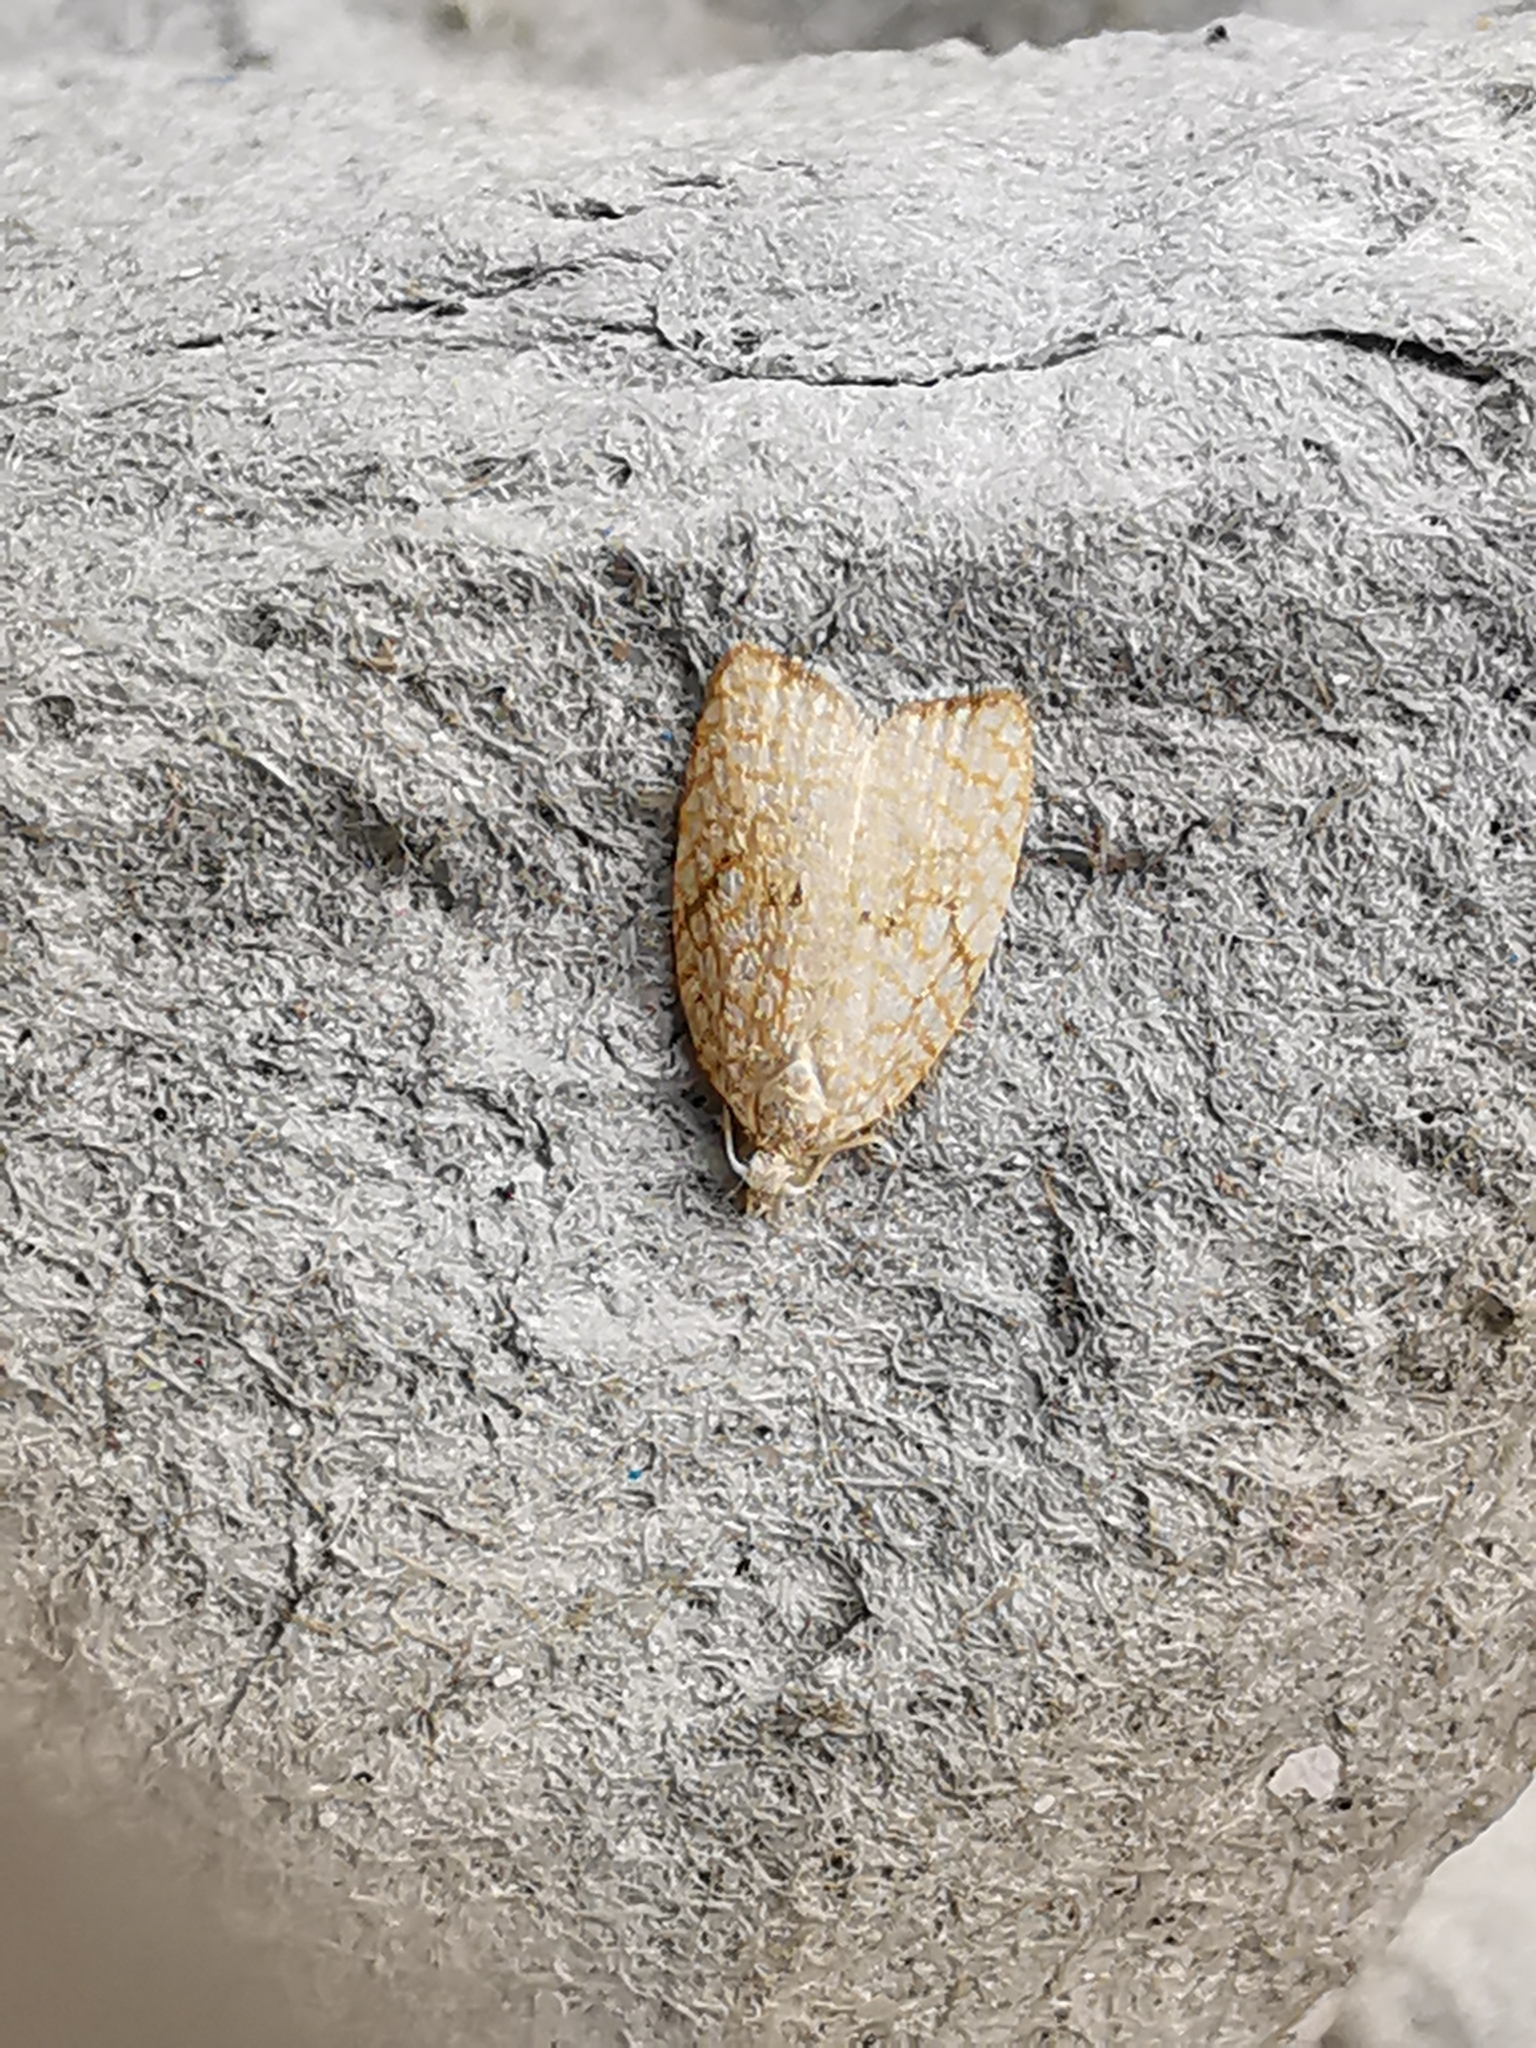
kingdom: Animalia
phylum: Arthropoda
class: Insecta
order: Lepidoptera
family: Tortricidae
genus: Acleris
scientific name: Acleris forsskaleana
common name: Maple button
